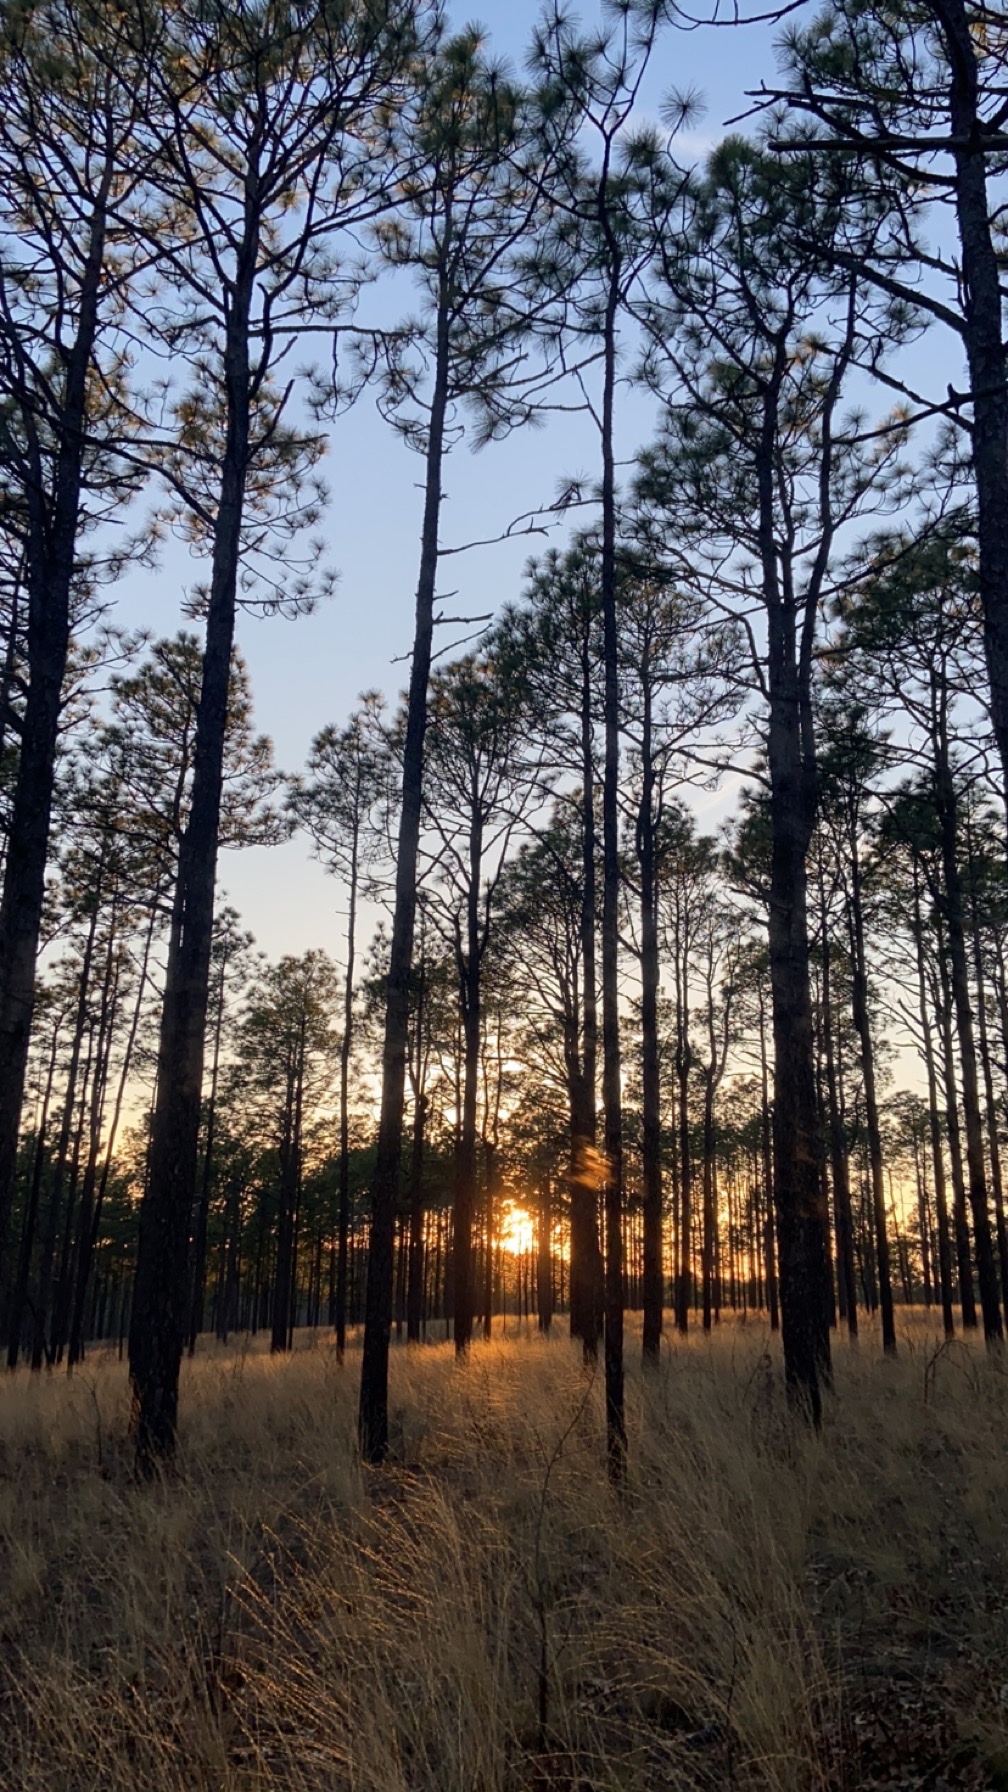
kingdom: Plantae
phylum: Tracheophyta
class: Pinopsida
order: Pinales
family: Pinaceae
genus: Pinus
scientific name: Pinus palustris
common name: Longleaf pine
